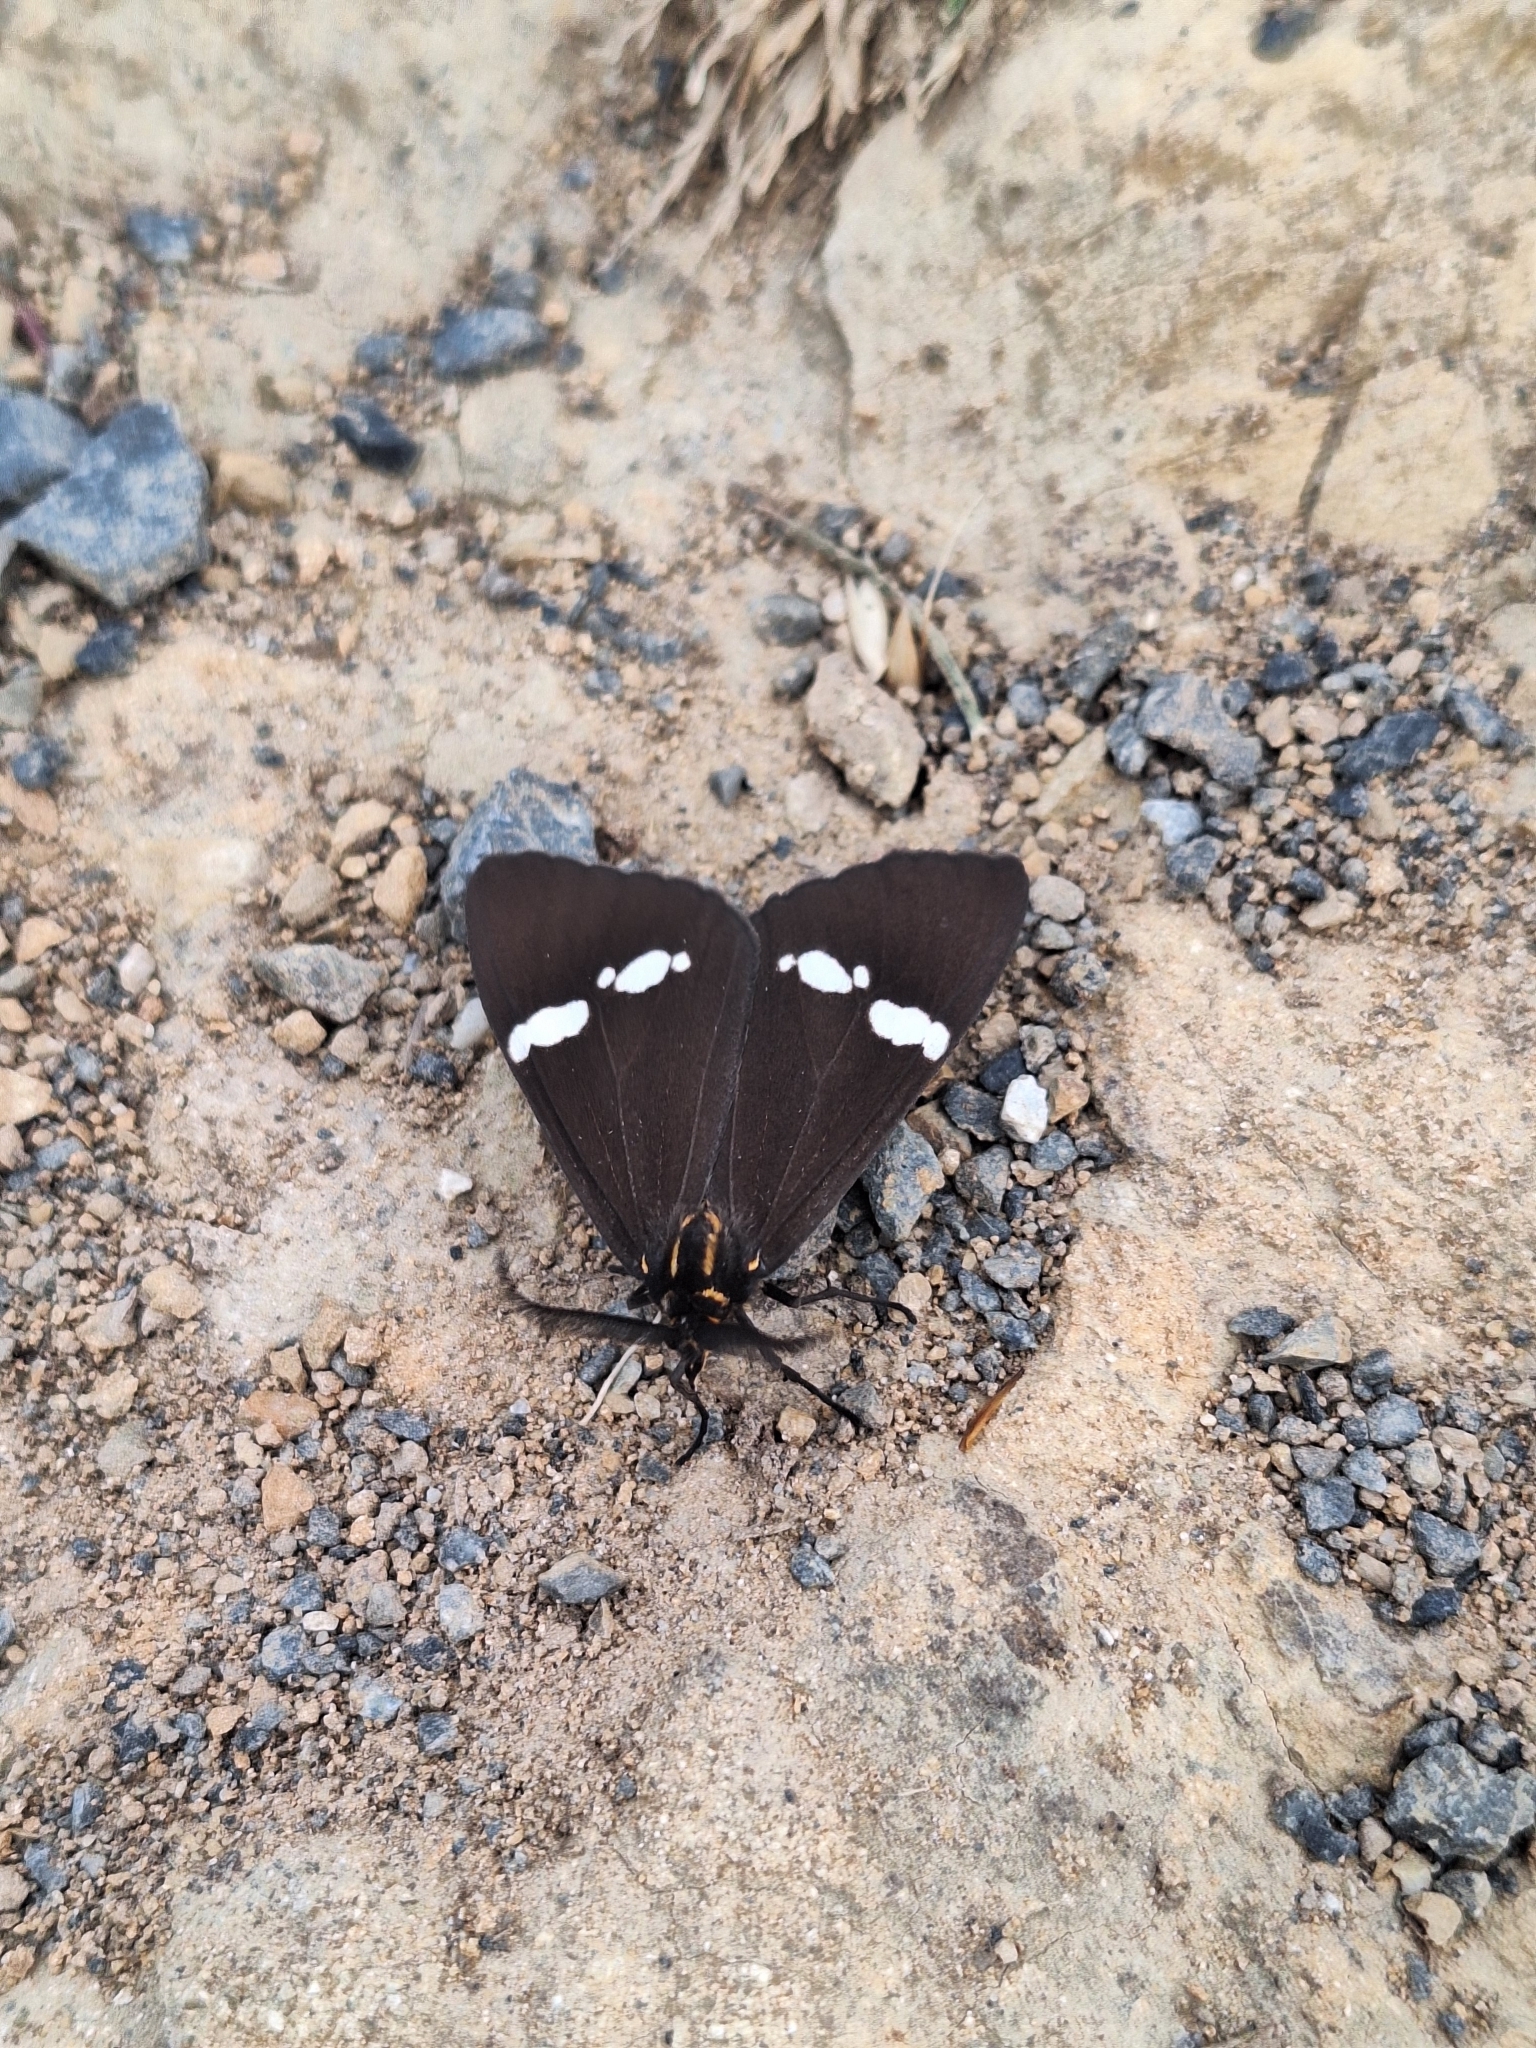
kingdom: Animalia
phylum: Arthropoda
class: Insecta
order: Lepidoptera
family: Erebidae
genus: Nyctemera
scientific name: Nyctemera annulatum
